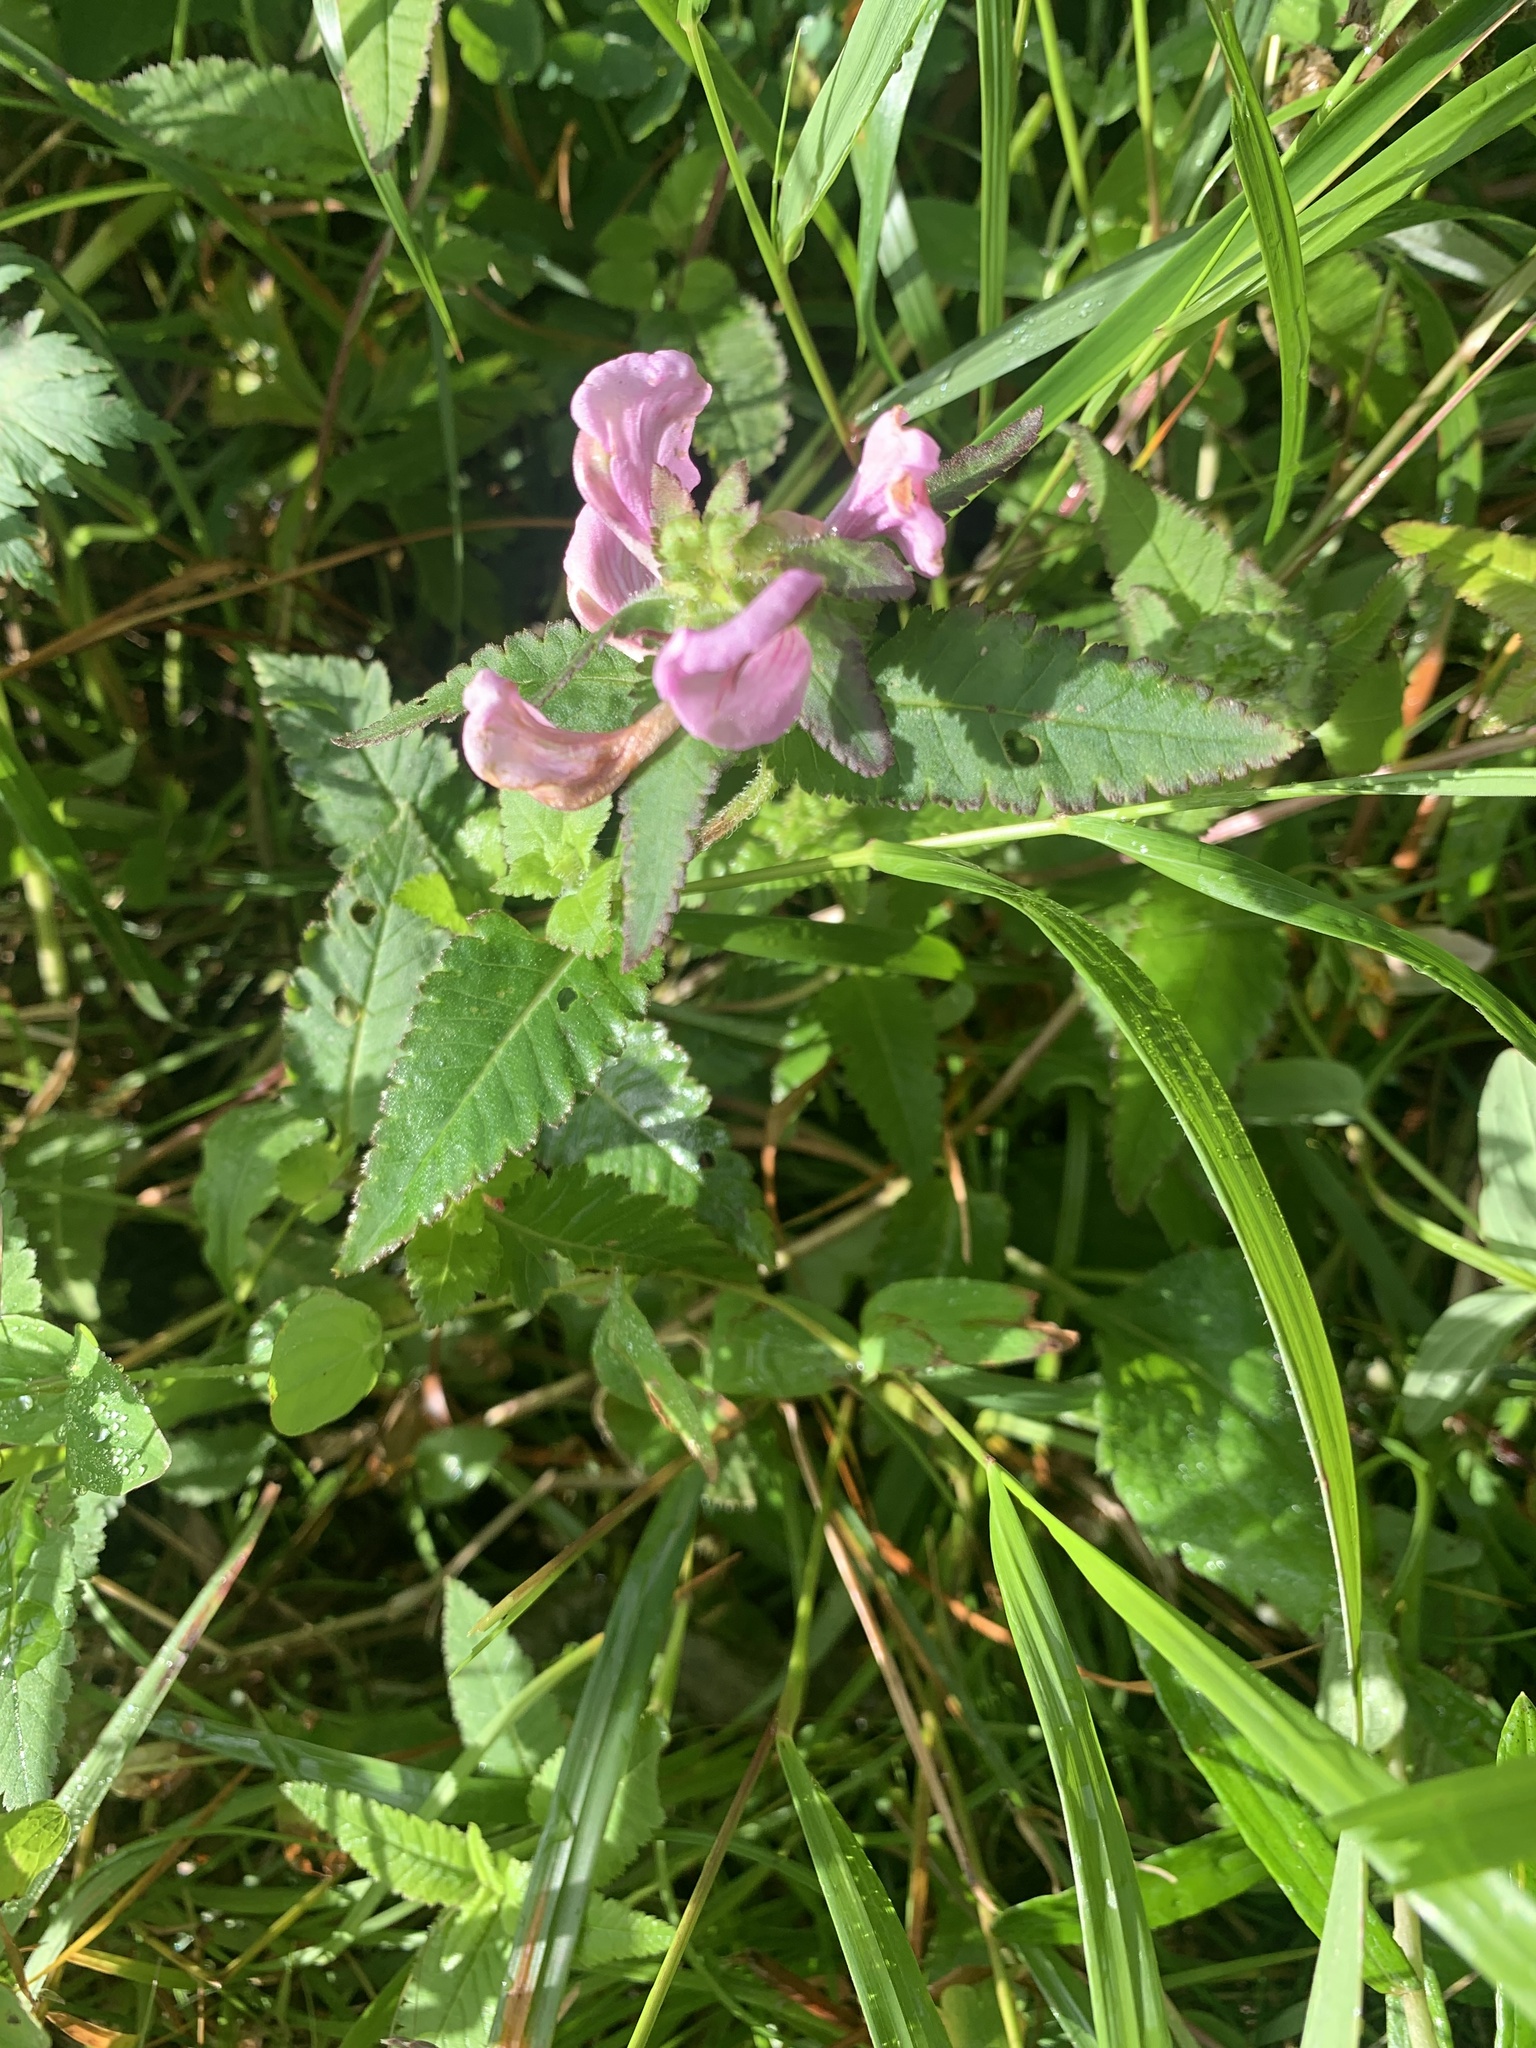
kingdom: Plantae
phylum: Tracheophyta
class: Magnoliopsida
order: Lamiales
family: Orobanchaceae
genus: Pedicularis
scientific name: Pedicularis resupinata
